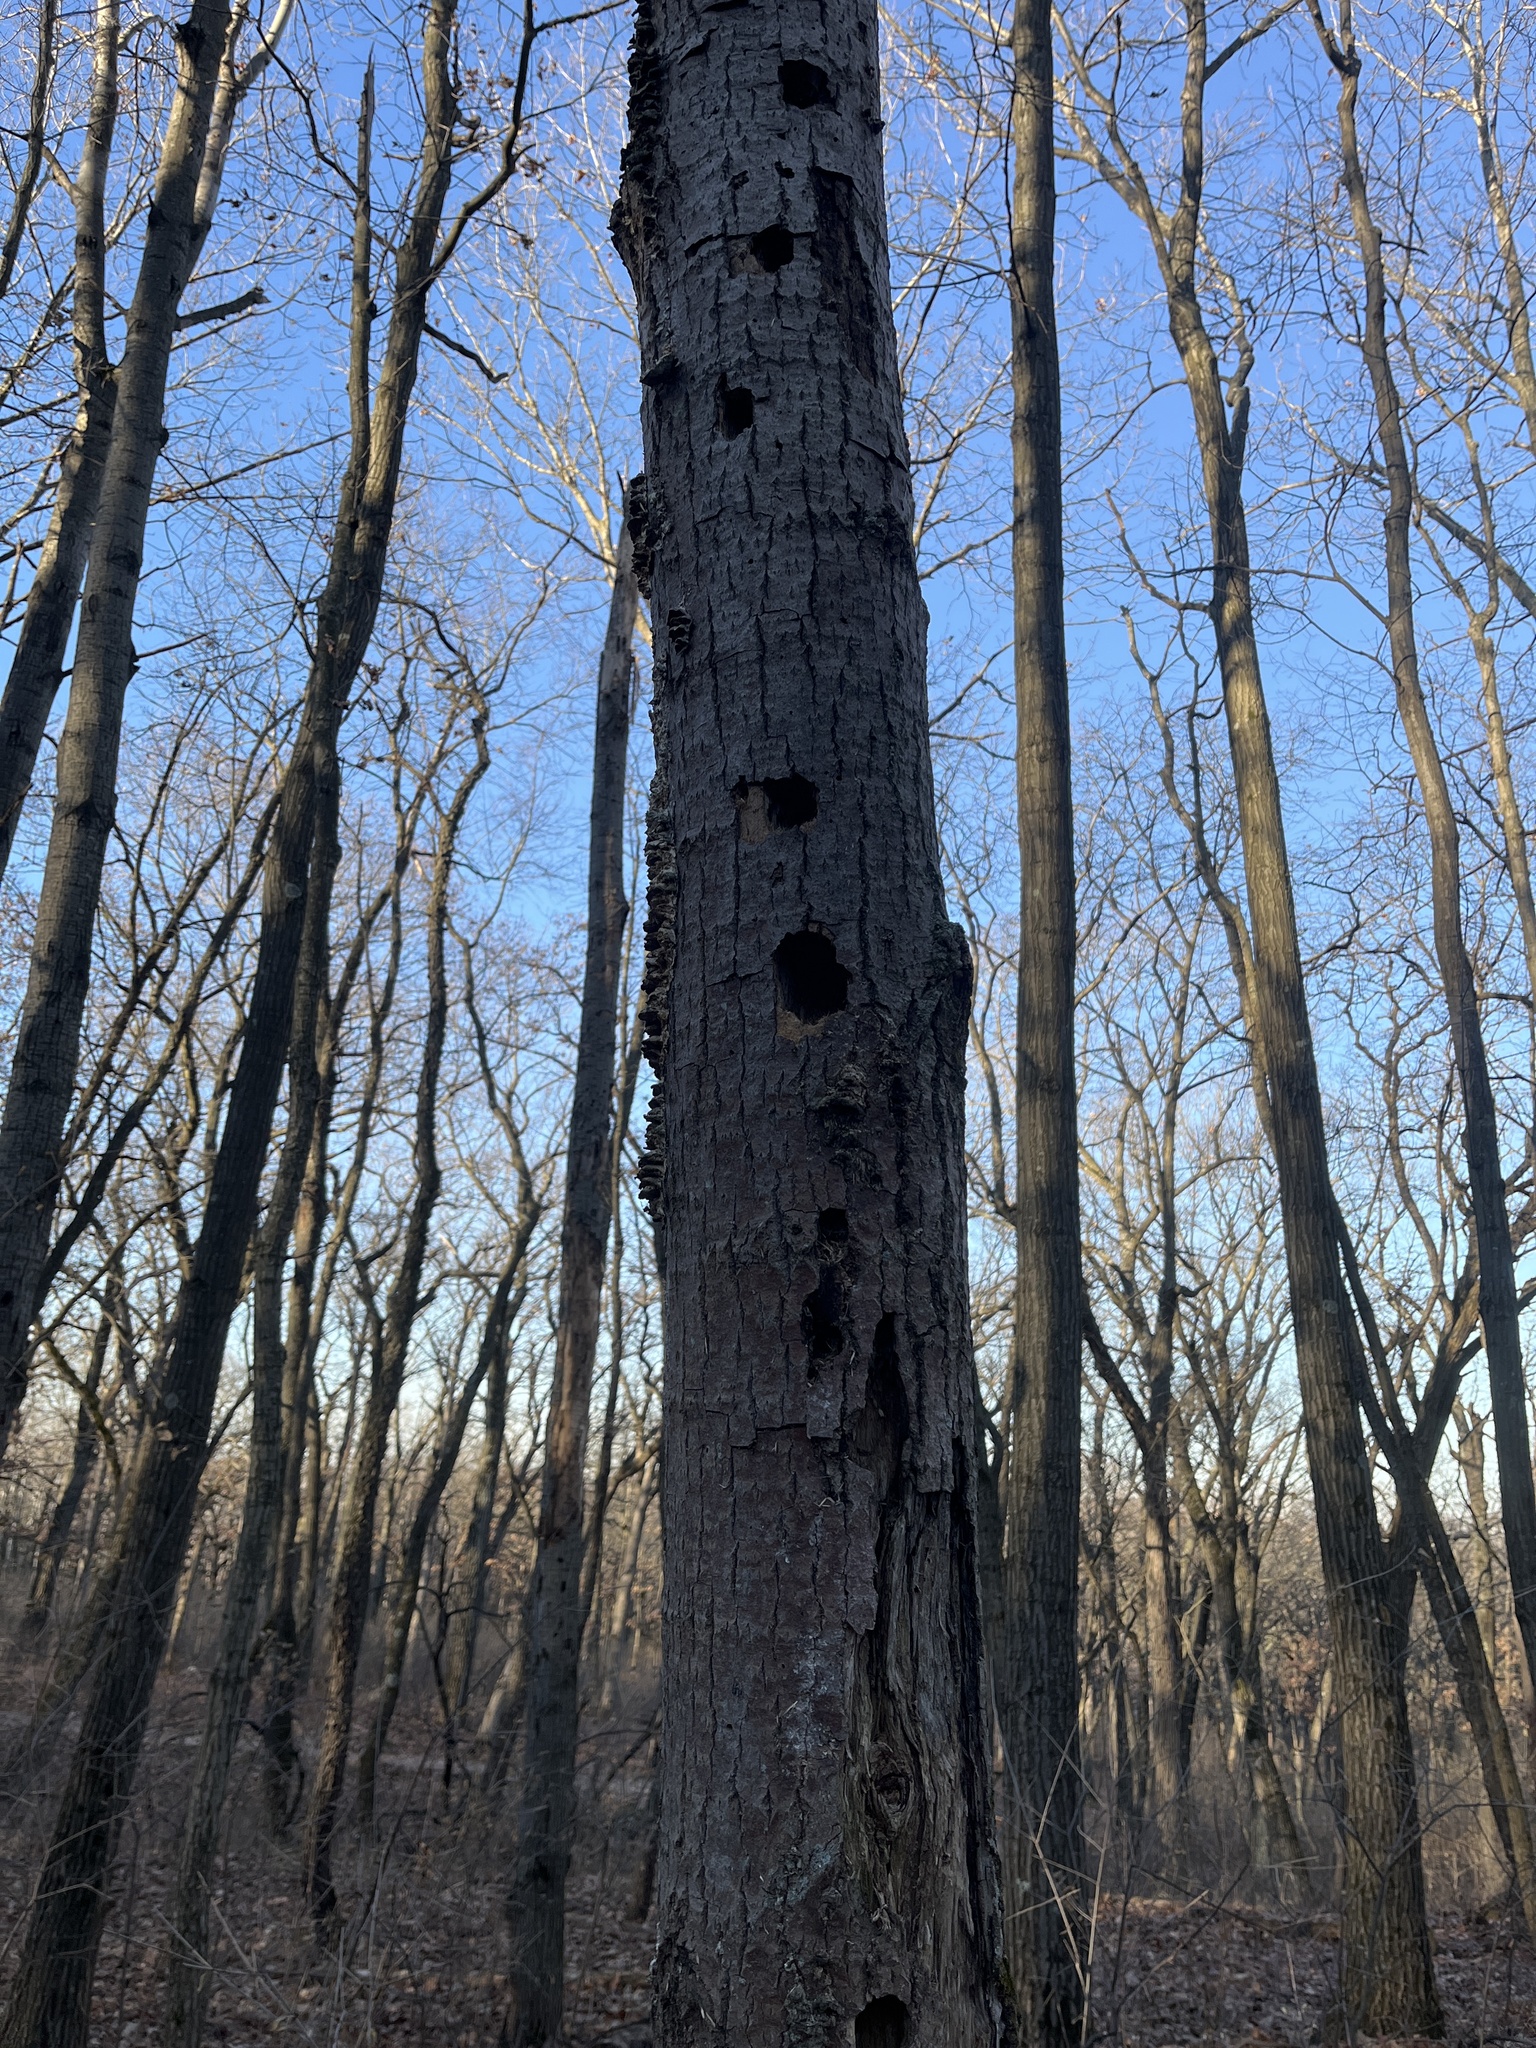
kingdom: Animalia
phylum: Chordata
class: Aves
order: Piciformes
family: Picidae
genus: Dryocopus
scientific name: Dryocopus pileatus
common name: Pileated woodpecker
